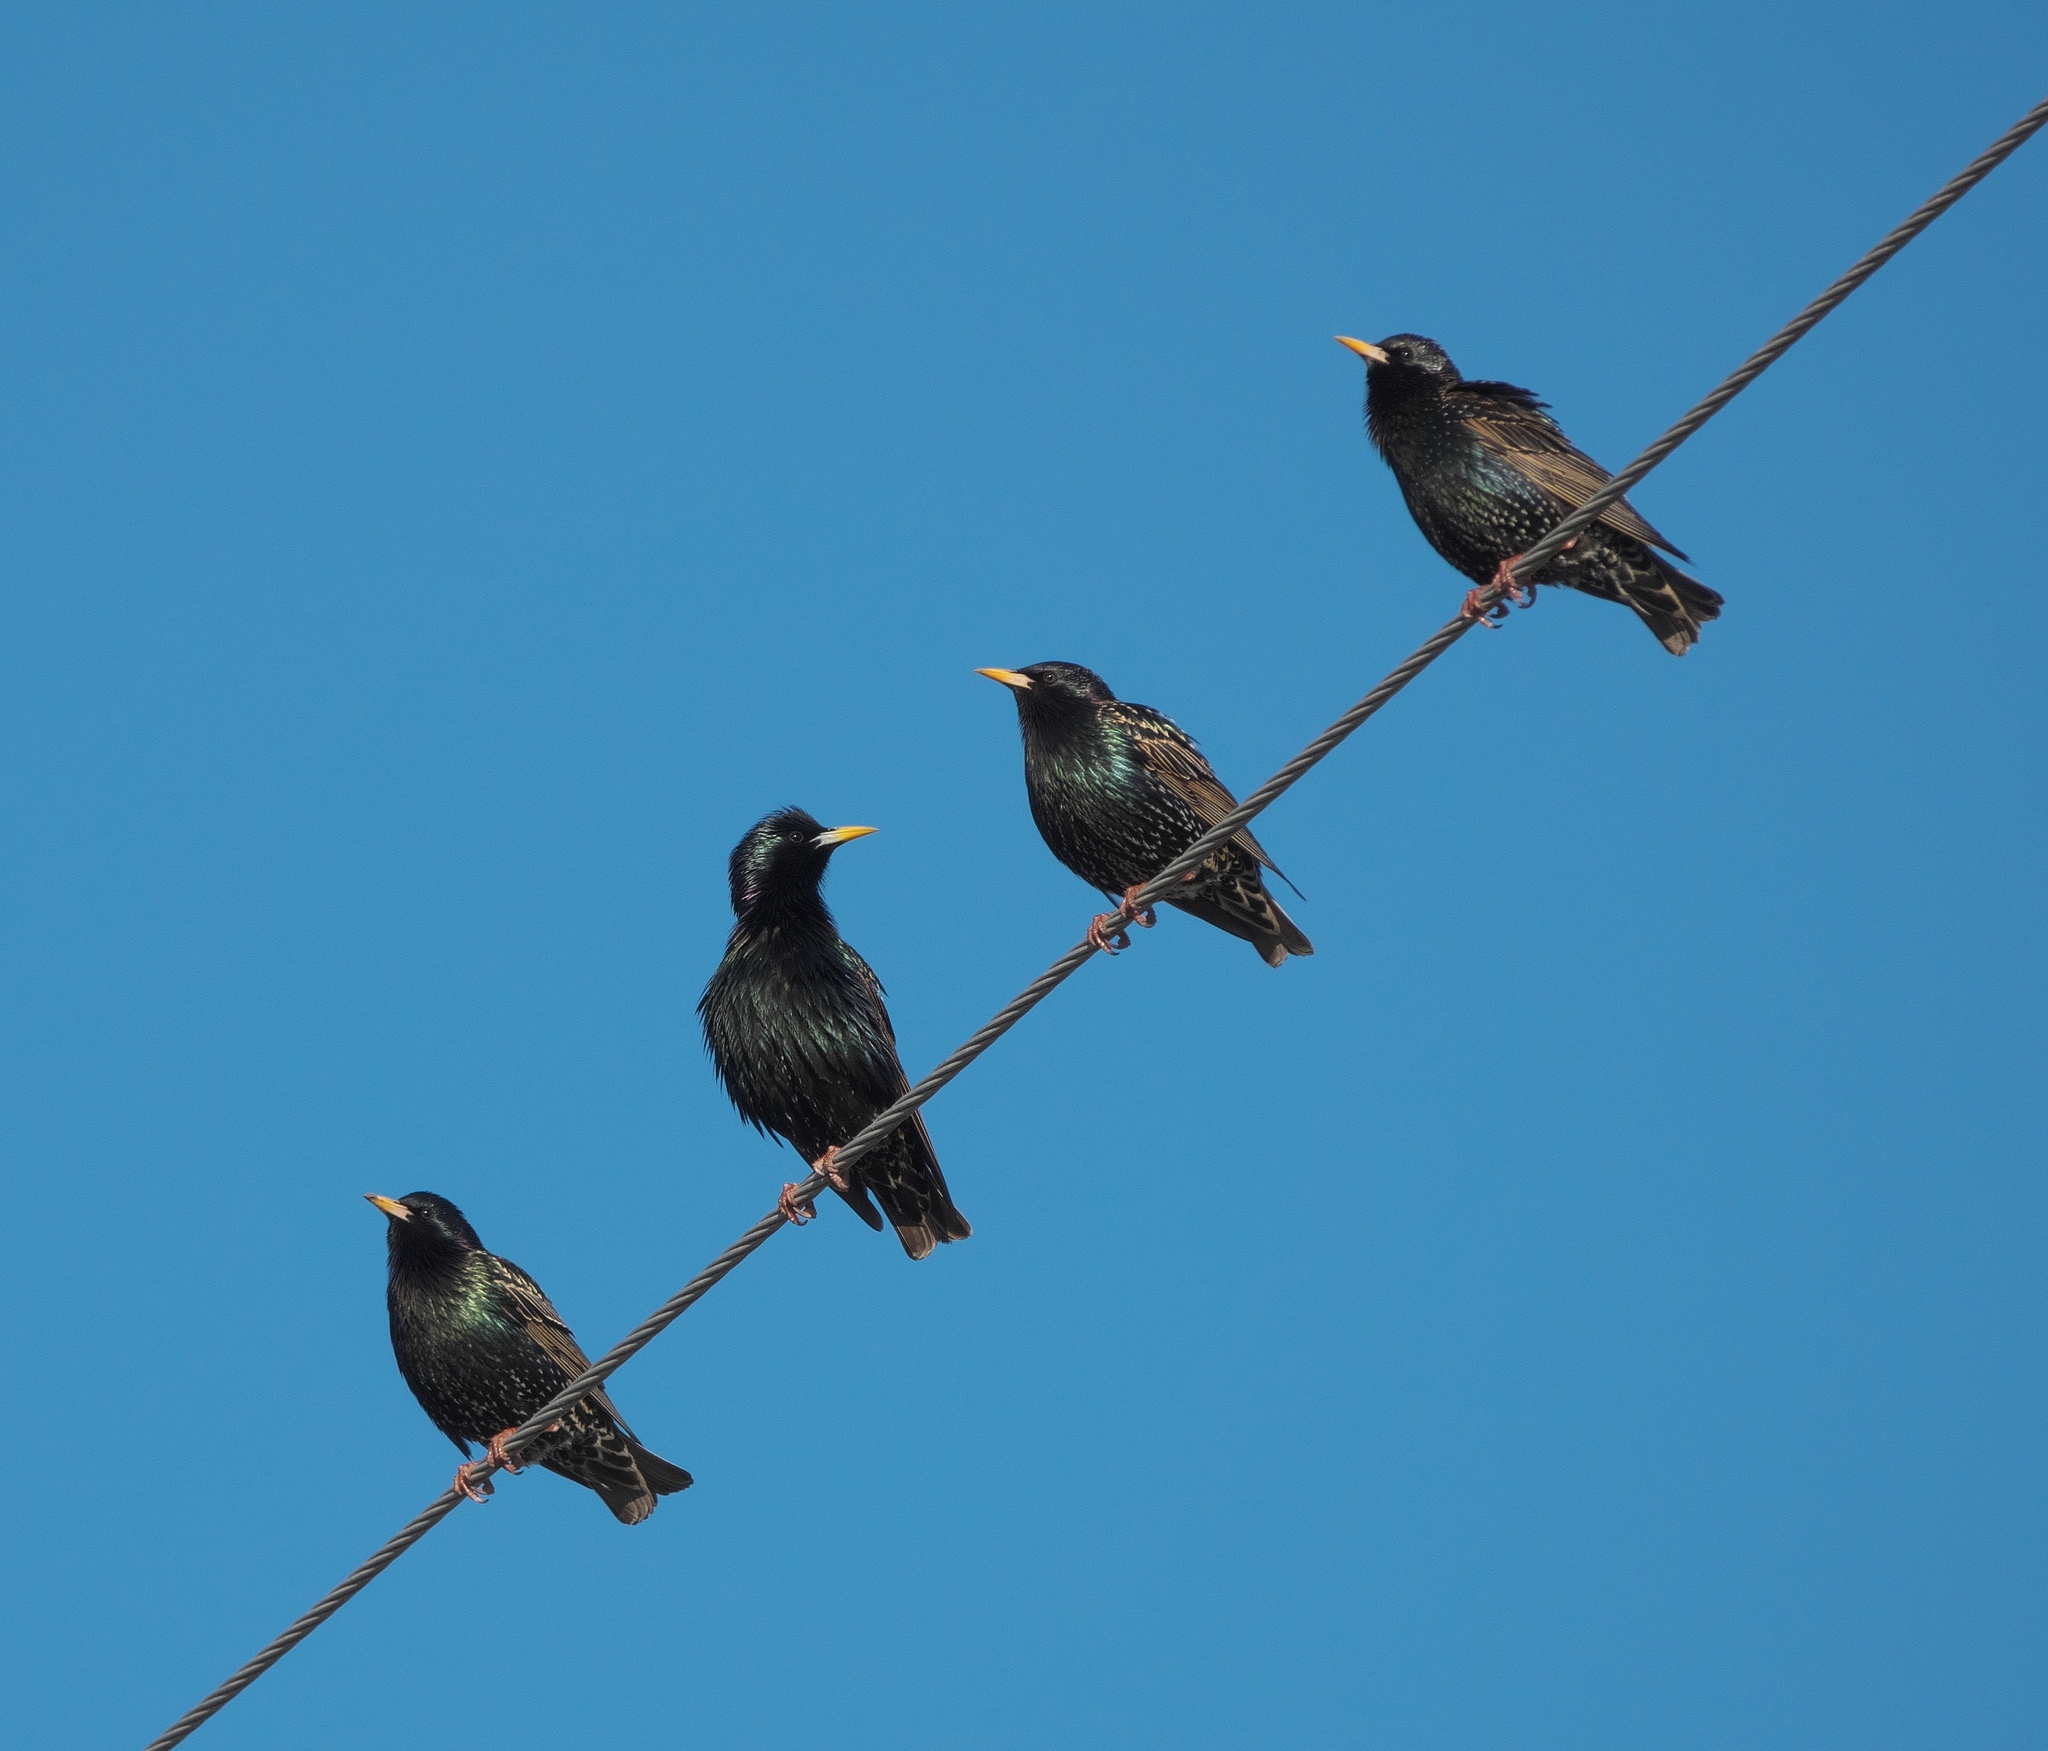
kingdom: Animalia
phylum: Chordata
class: Aves
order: Passeriformes
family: Sturnidae
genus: Sturnus
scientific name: Sturnus vulgaris
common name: Common starling
